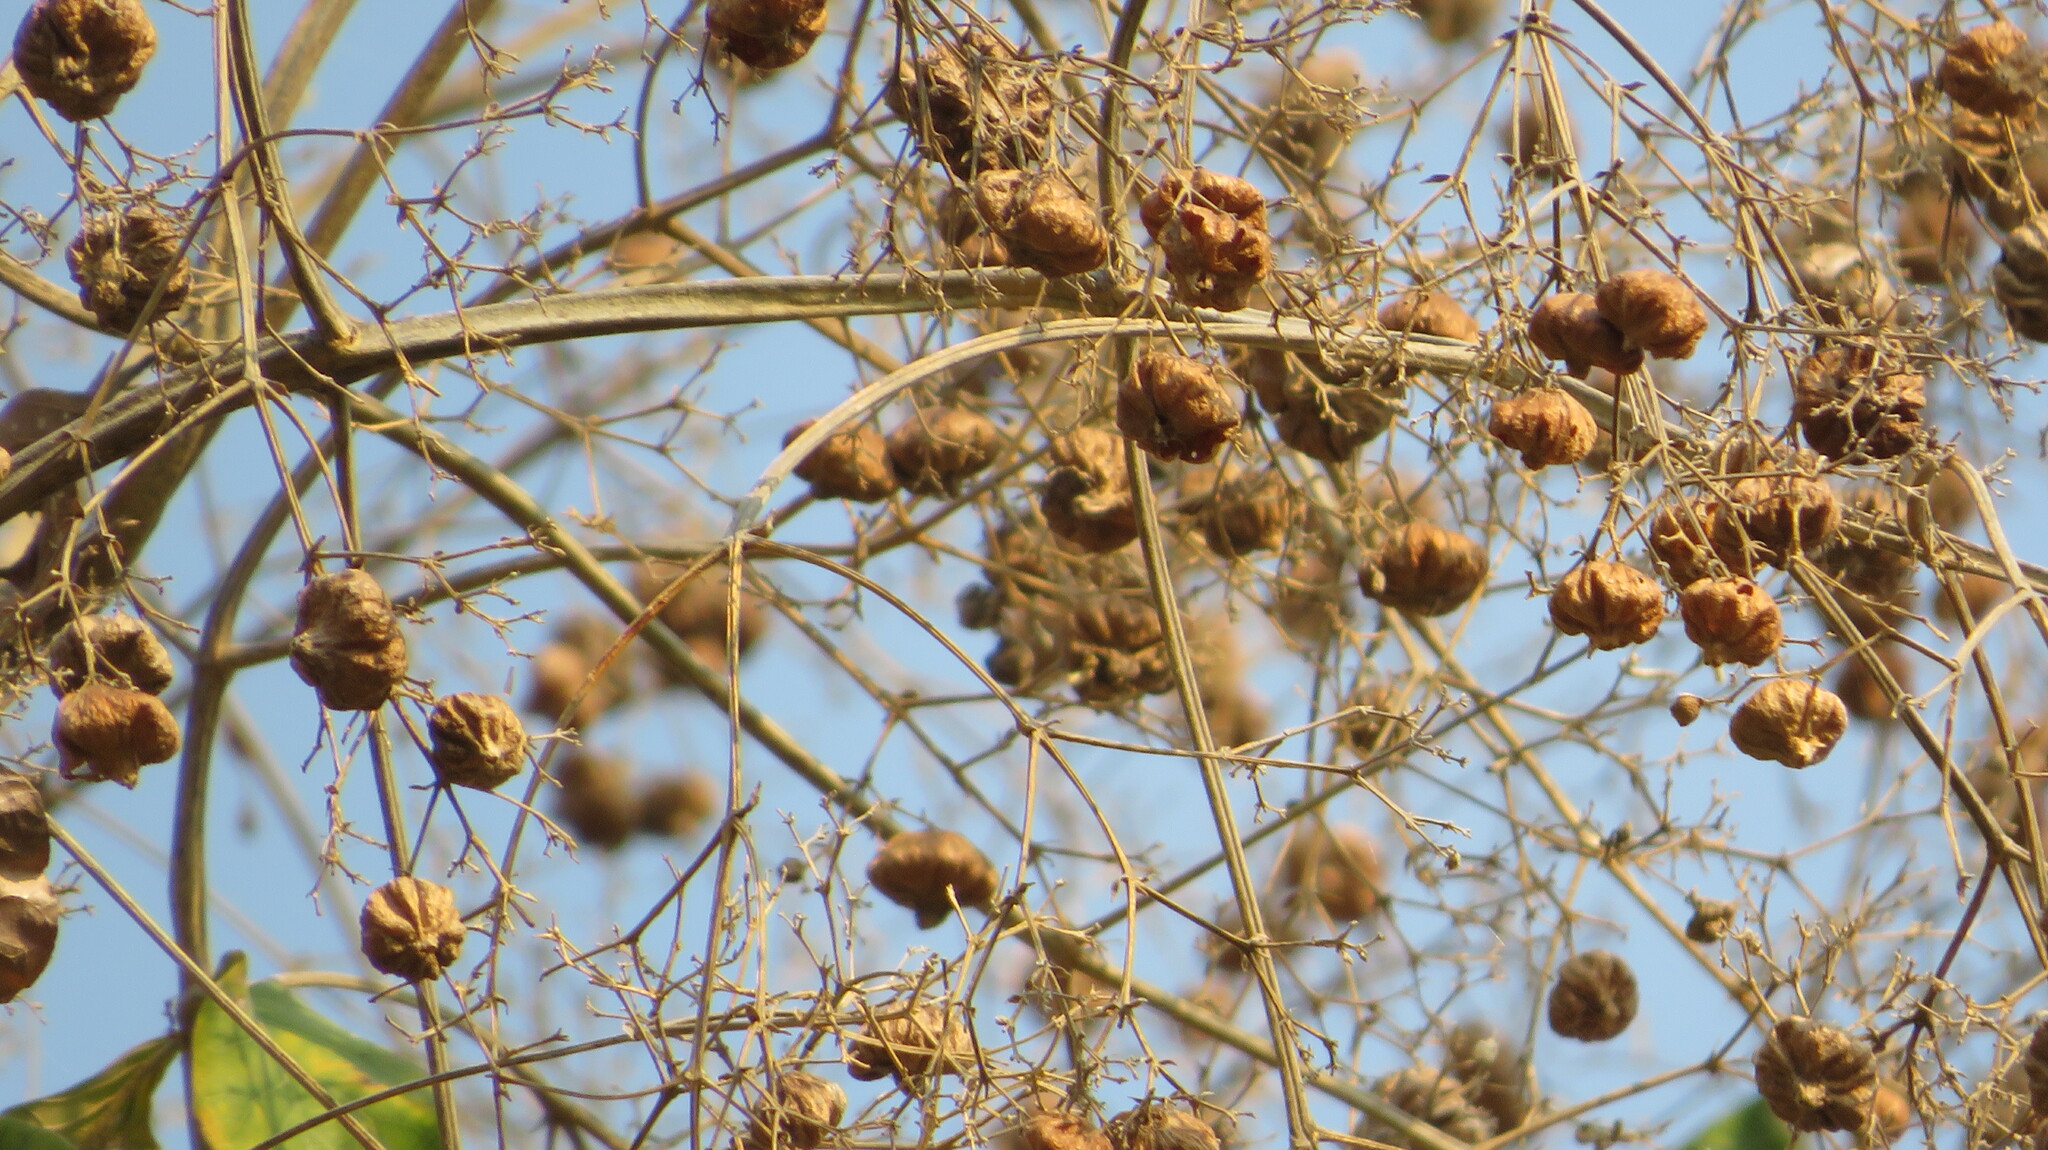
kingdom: Plantae
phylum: Tracheophyta
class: Magnoliopsida
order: Lamiales
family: Lamiaceae
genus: Tectona
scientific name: Tectona grandis
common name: Teak
